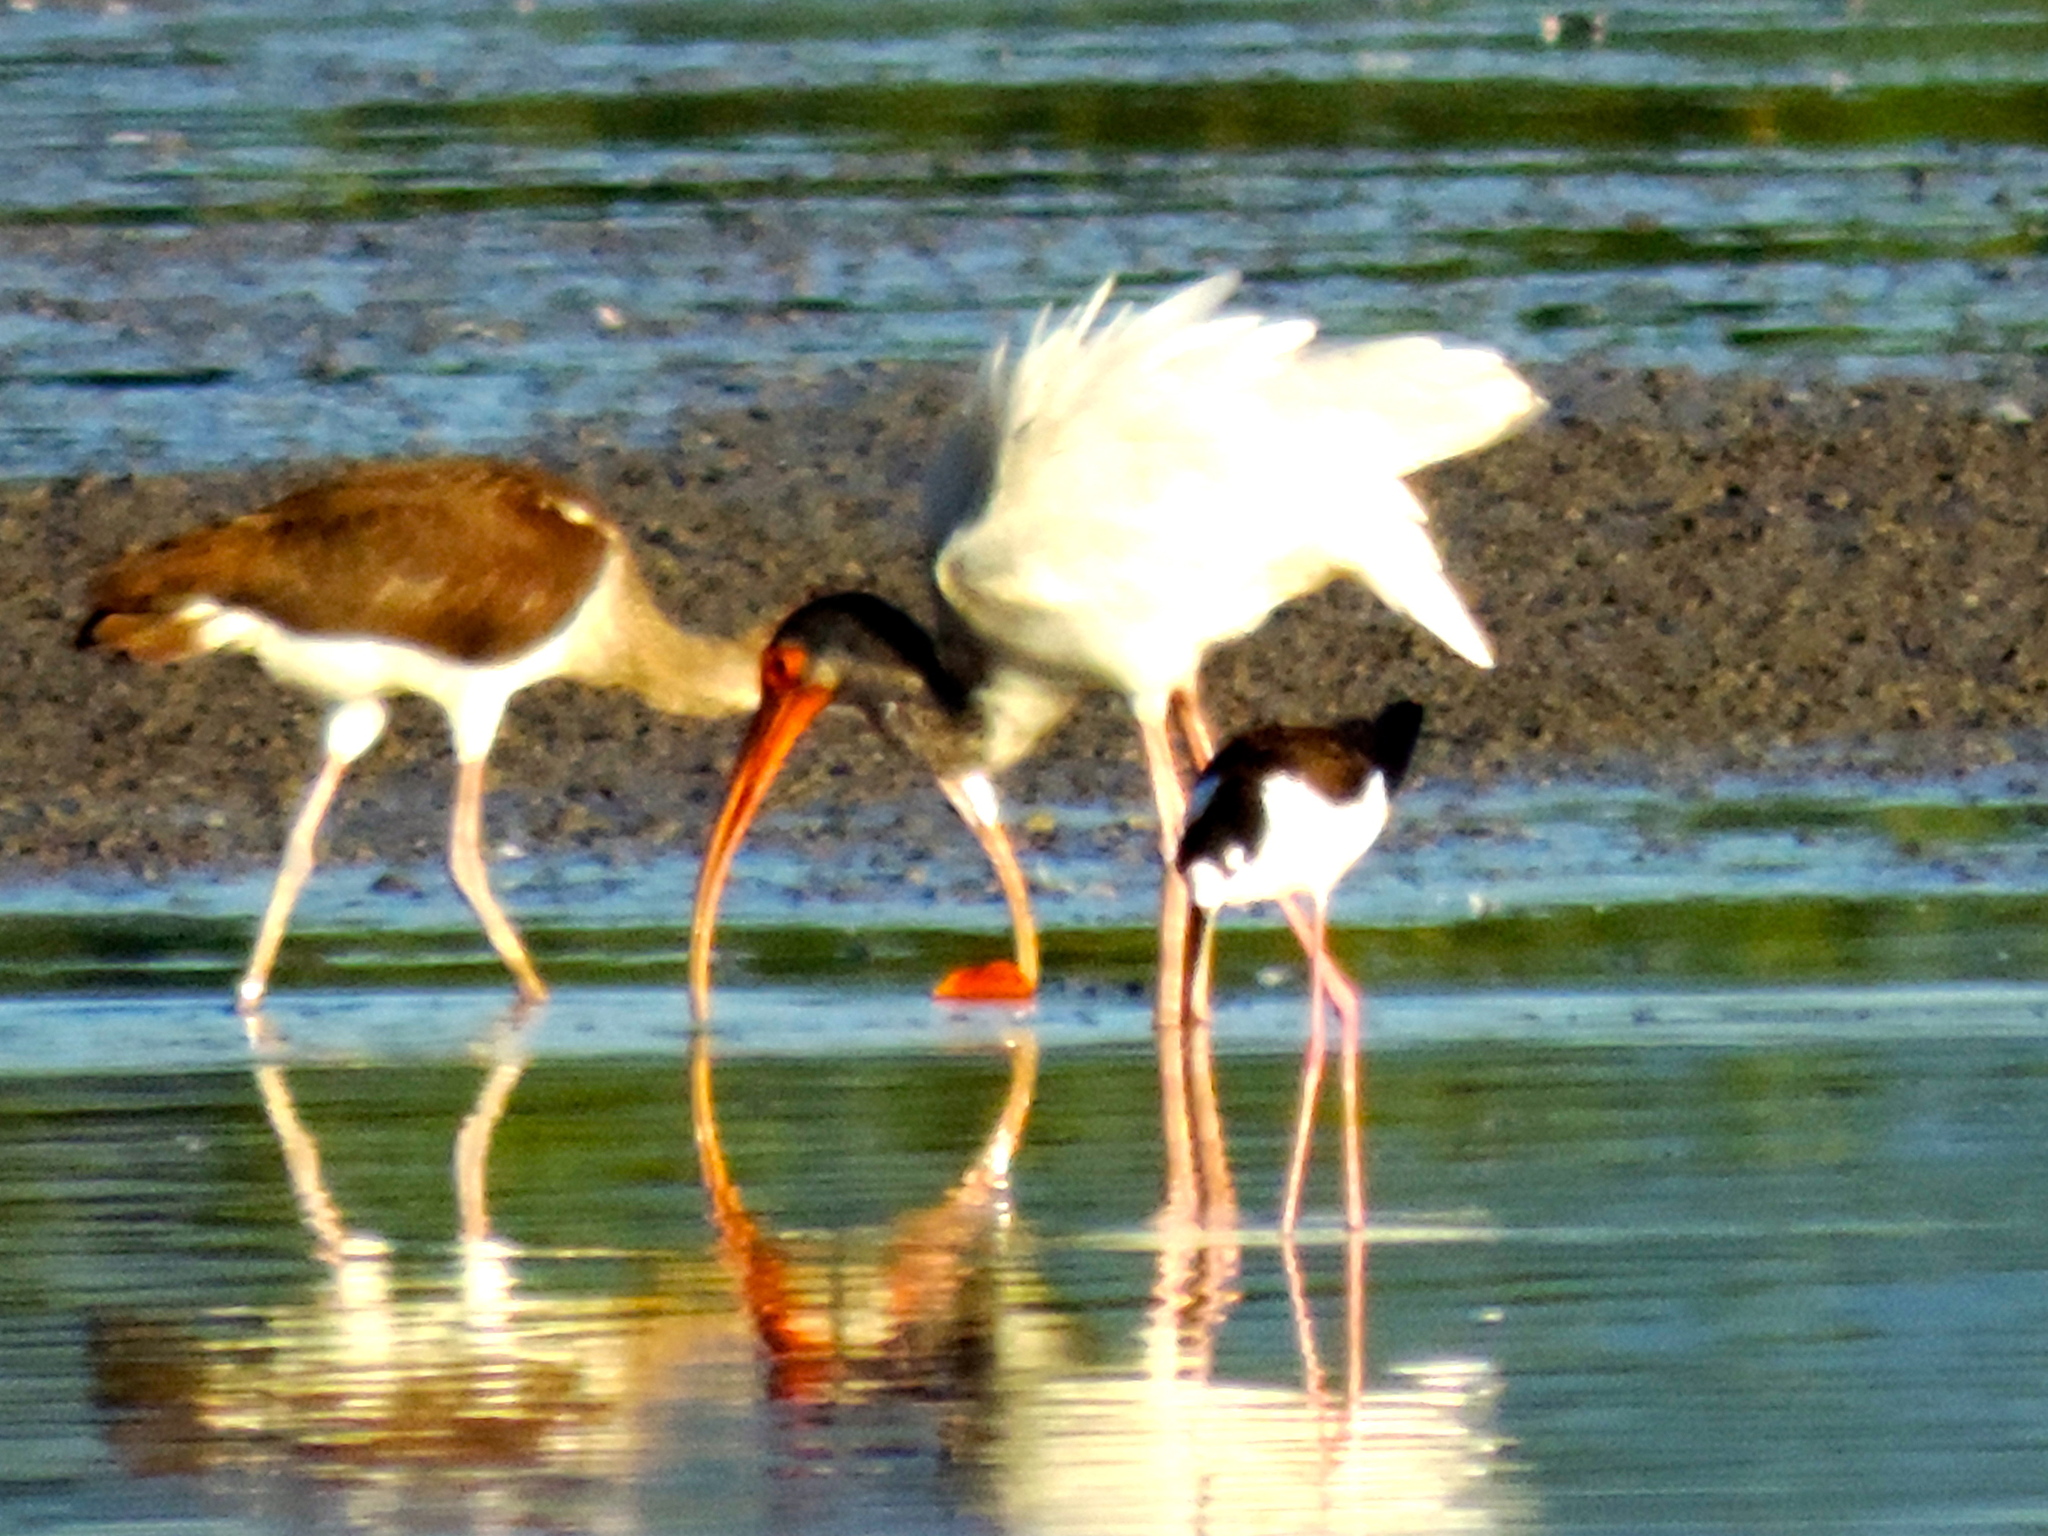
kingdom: Animalia
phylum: Chordata
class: Aves
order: Pelecaniformes
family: Threskiornithidae
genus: Eudocimus
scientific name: Eudocimus albus
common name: White ibis
